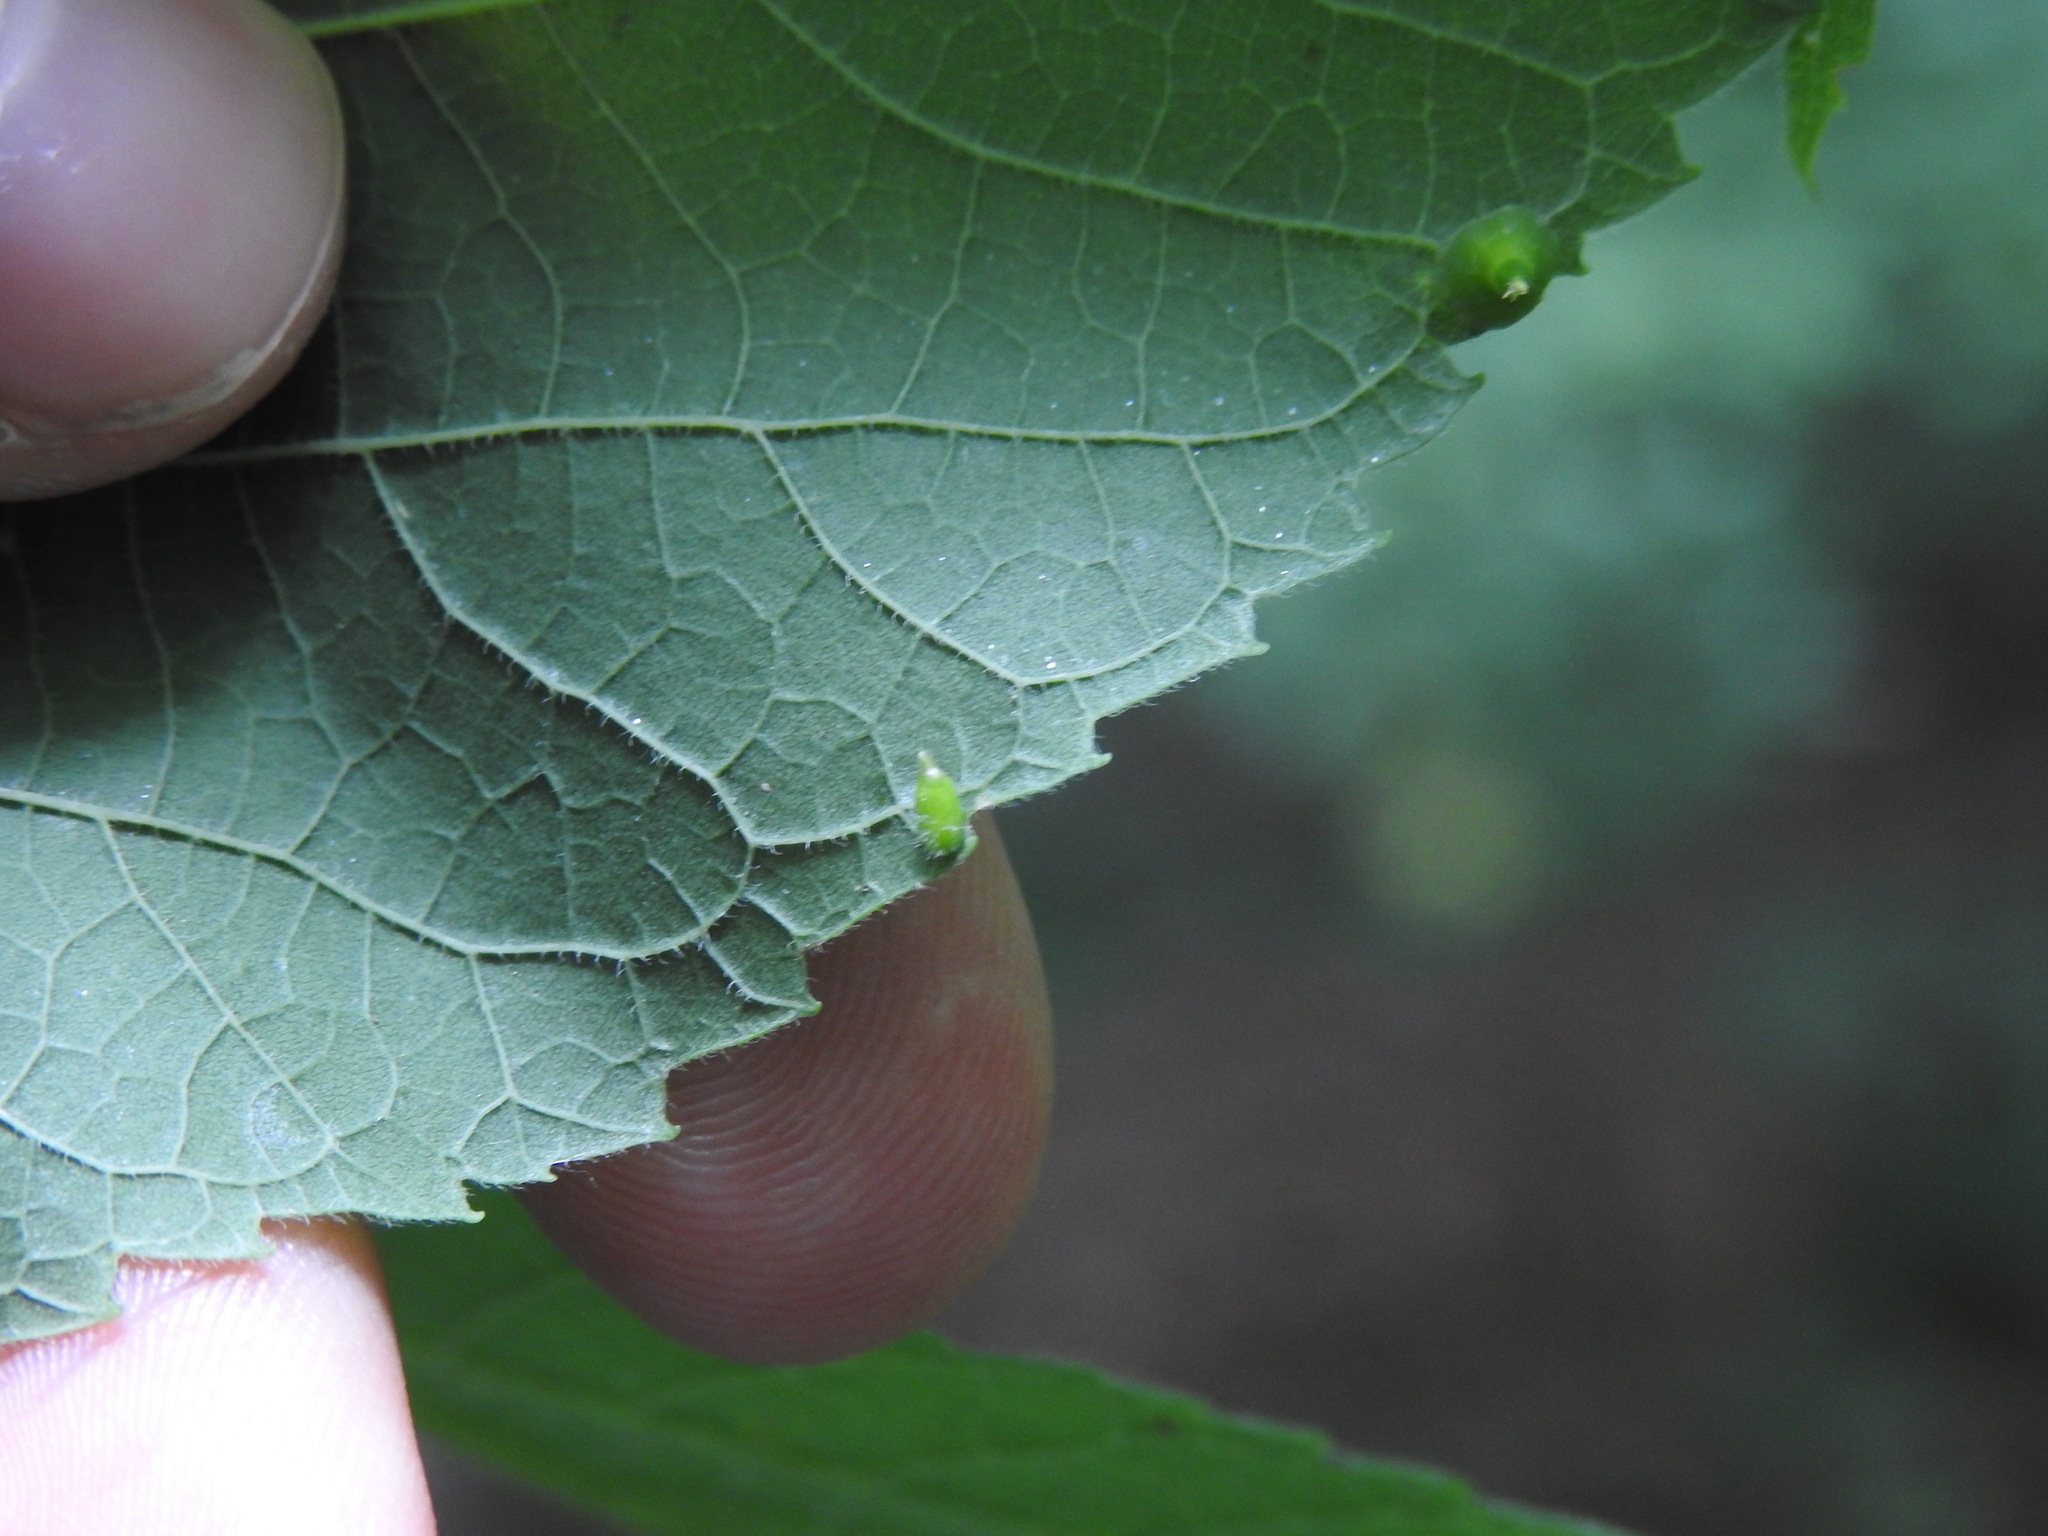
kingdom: Animalia
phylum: Arthropoda
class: Insecta
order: Diptera
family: Cecidomyiidae
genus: Celticecis
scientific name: Celticecis supina
